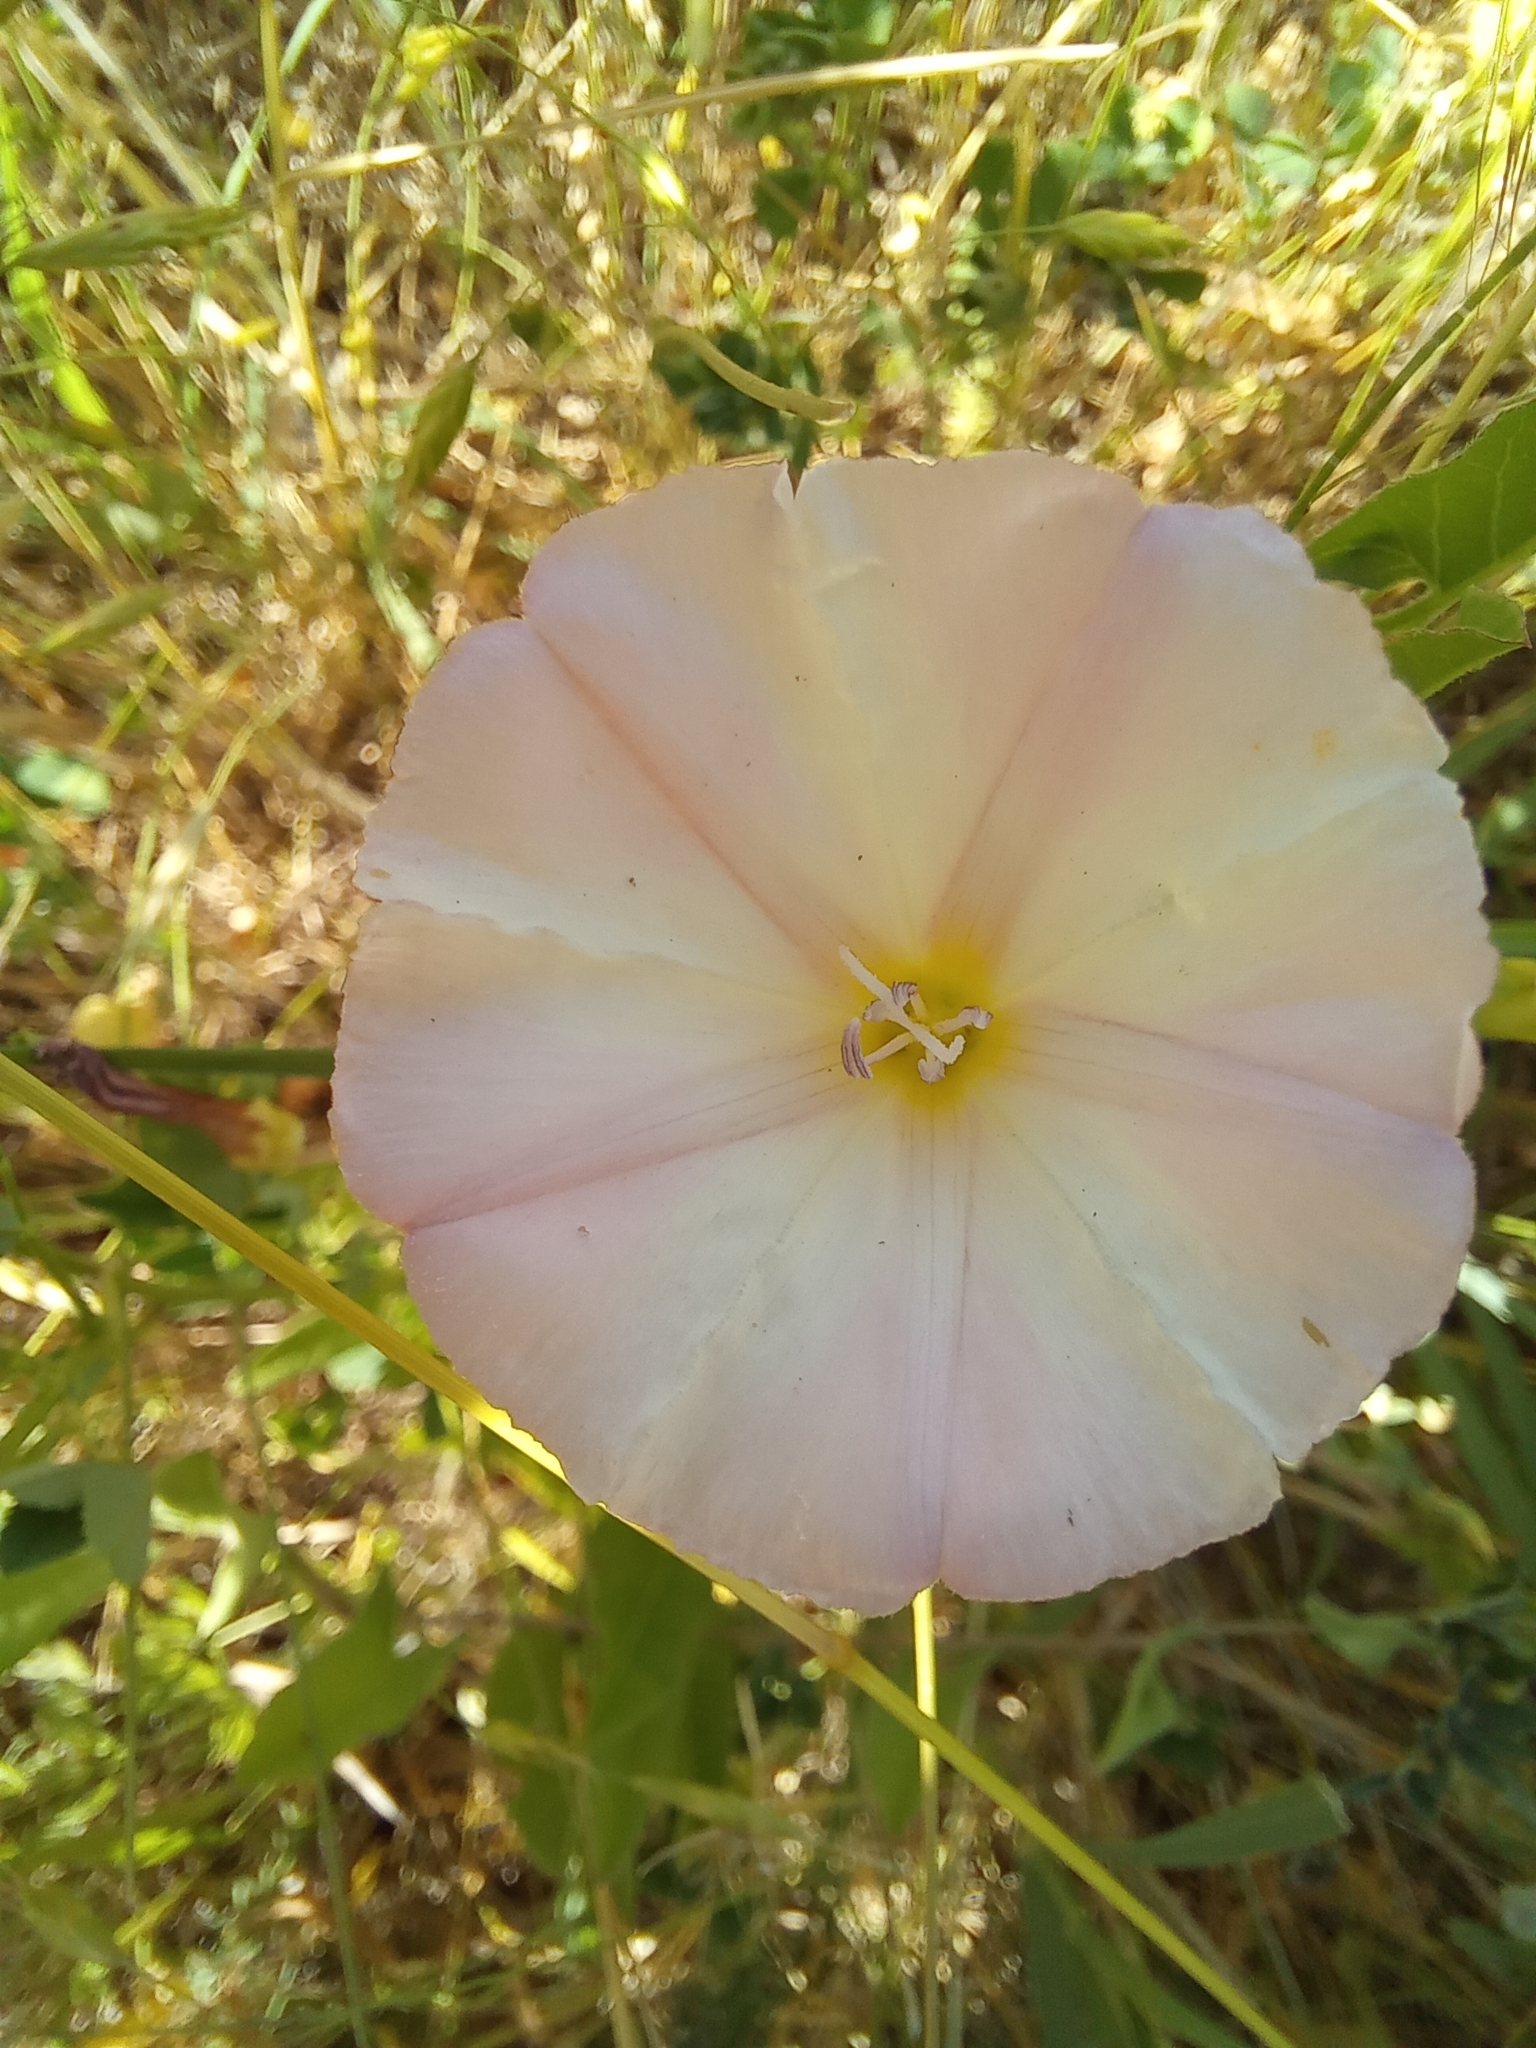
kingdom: Plantae
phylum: Tracheophyta
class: Magnoliopsida
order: Solanales
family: Convolvulaceae
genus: Convolvulus
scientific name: Convolvulus arvensis
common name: Field bindweed
